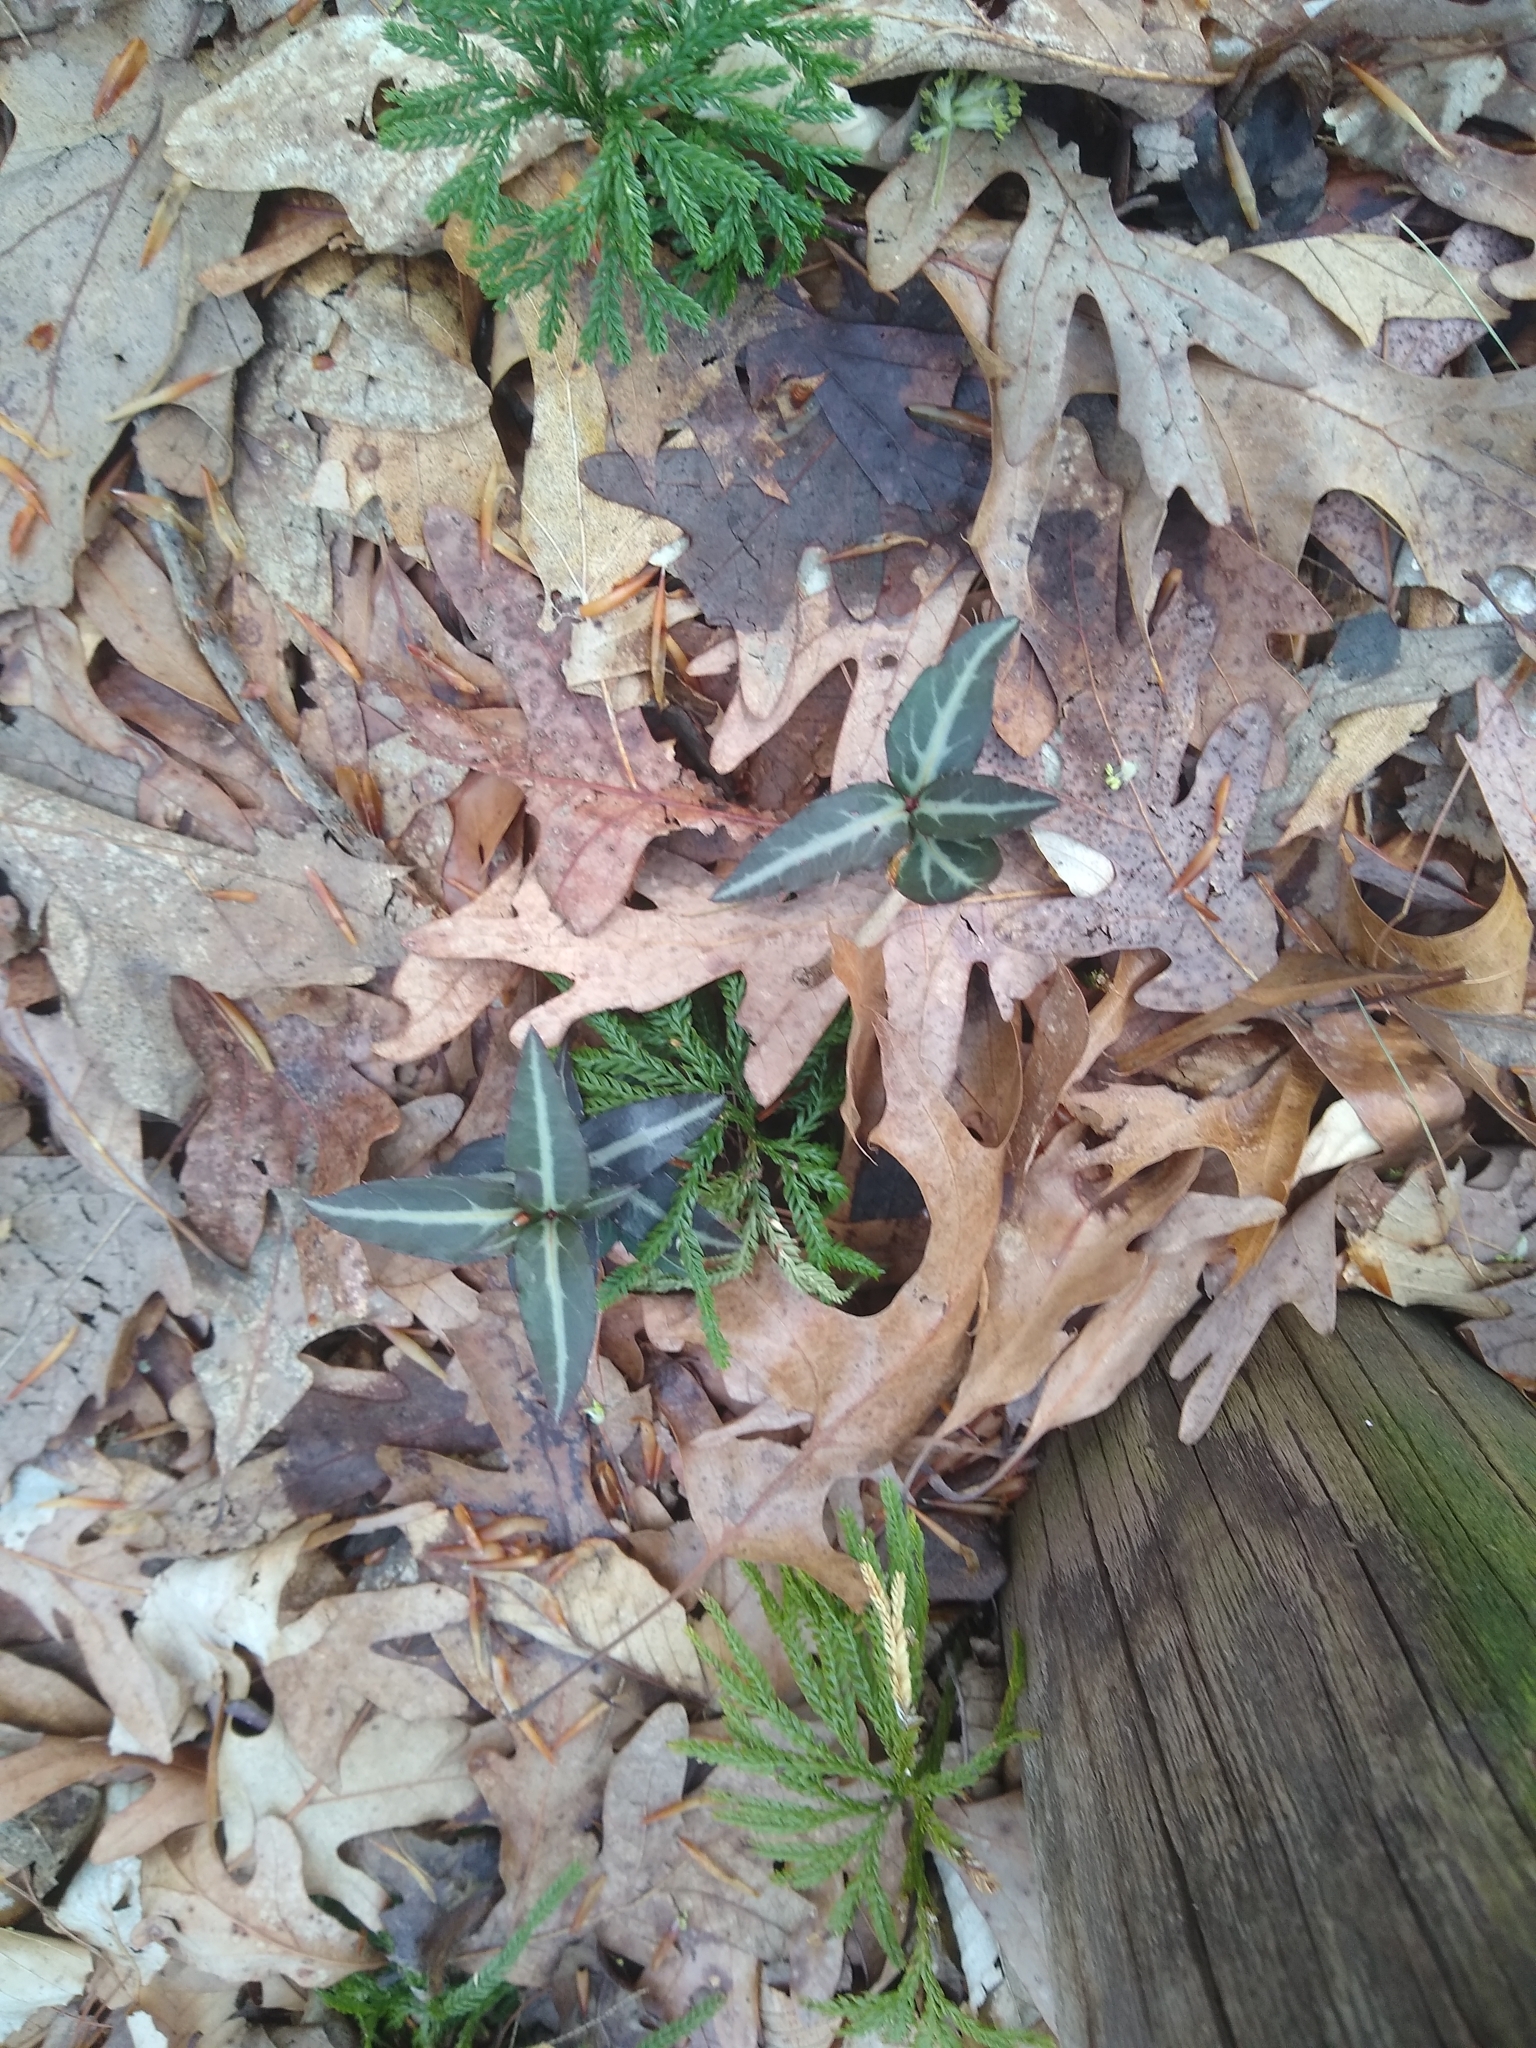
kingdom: Plantae
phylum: Tracheophyta
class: Magnoliopsida
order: Ericales
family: Ericaceae
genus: Chimaphila
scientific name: Chimaphila maculata
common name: Spotted pipsissewa
